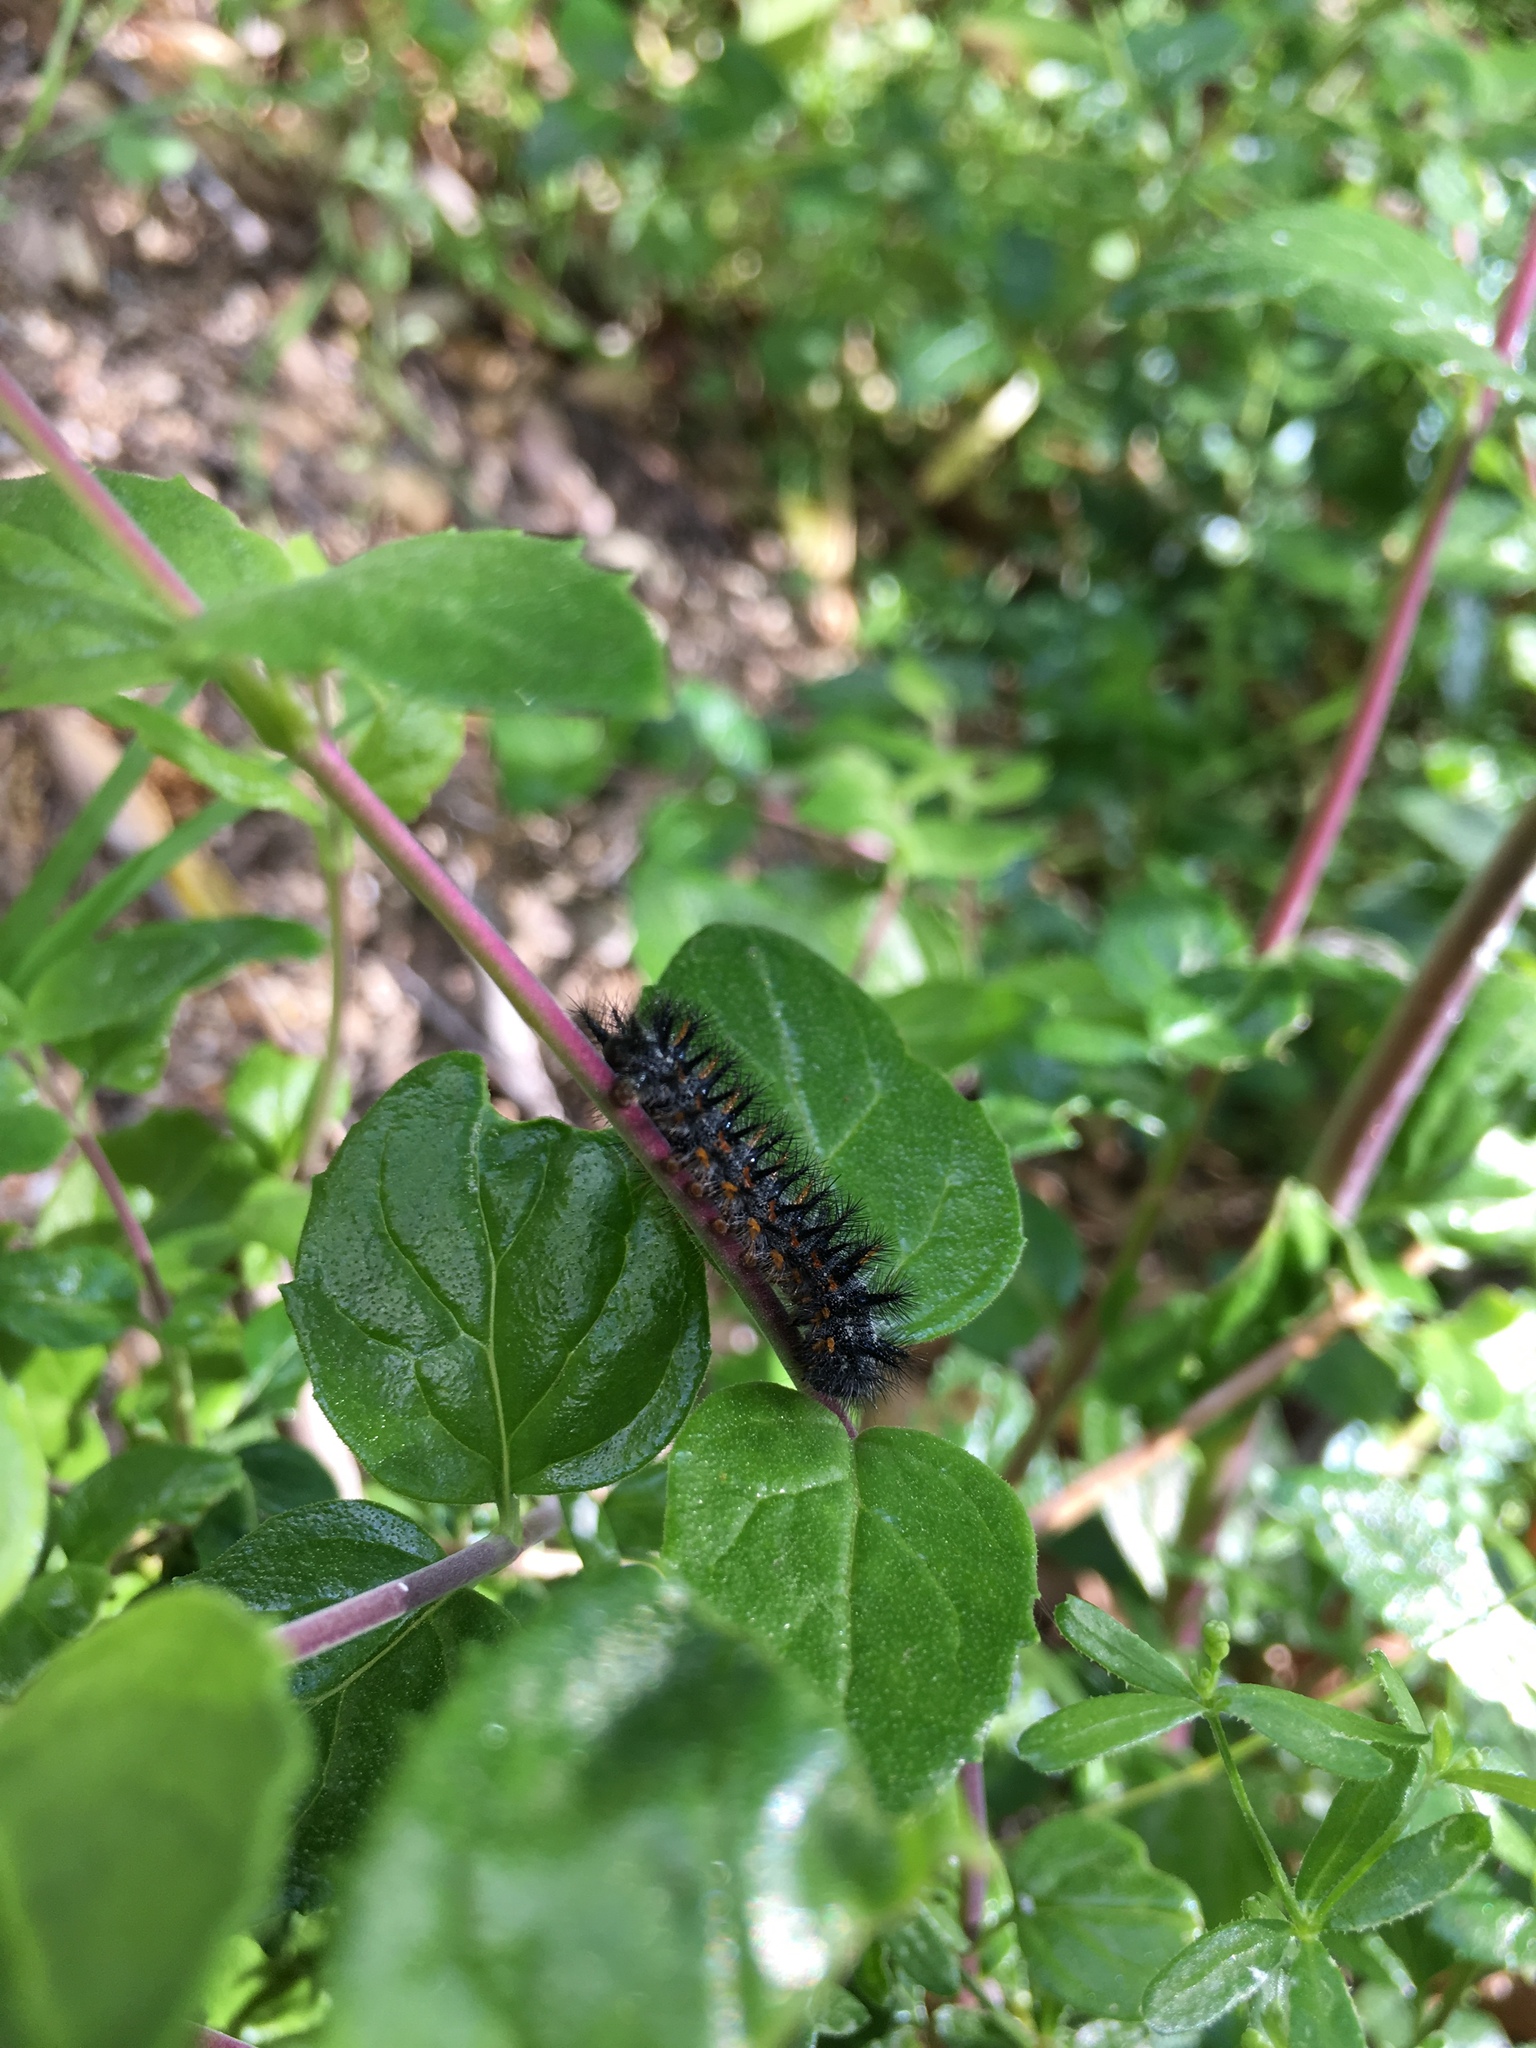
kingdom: Animalia
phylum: Arthropoda
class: Insecta
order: Lepidoptera
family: Nymphalidae
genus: Occidryas
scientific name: Occidryas chalcedona
